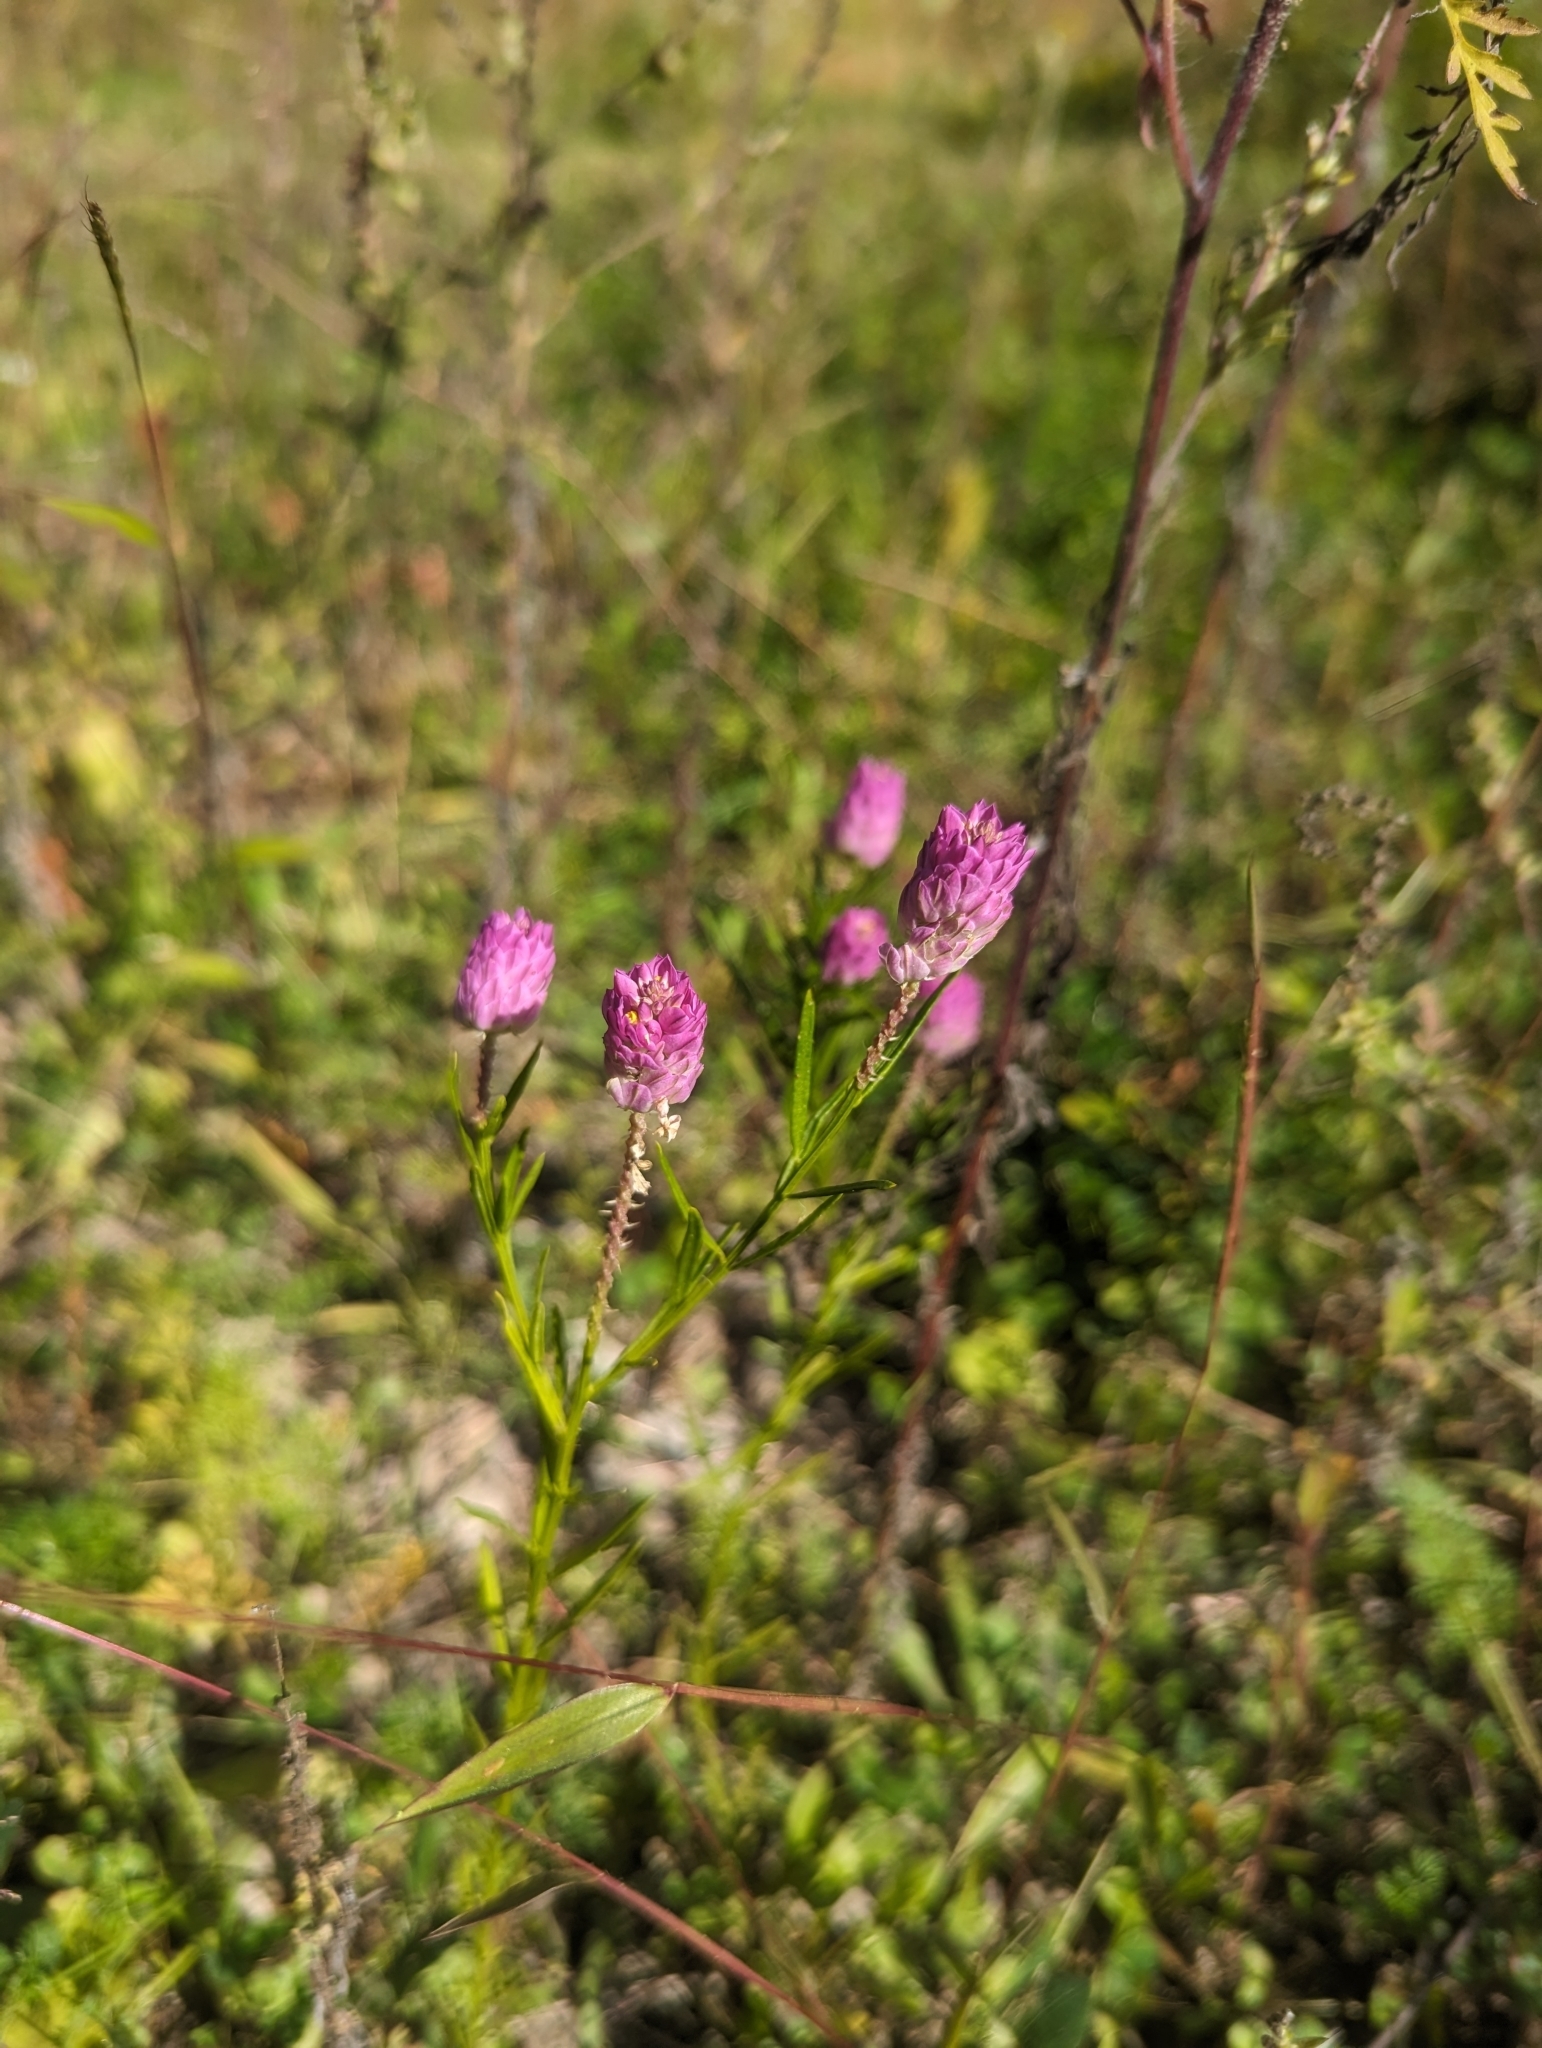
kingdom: Plantae
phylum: Tracheophyta
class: Magnoliopsida
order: Fabales
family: Polygalaceae
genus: Polygala
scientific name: Polygala sanguinea
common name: Blood milkwort
